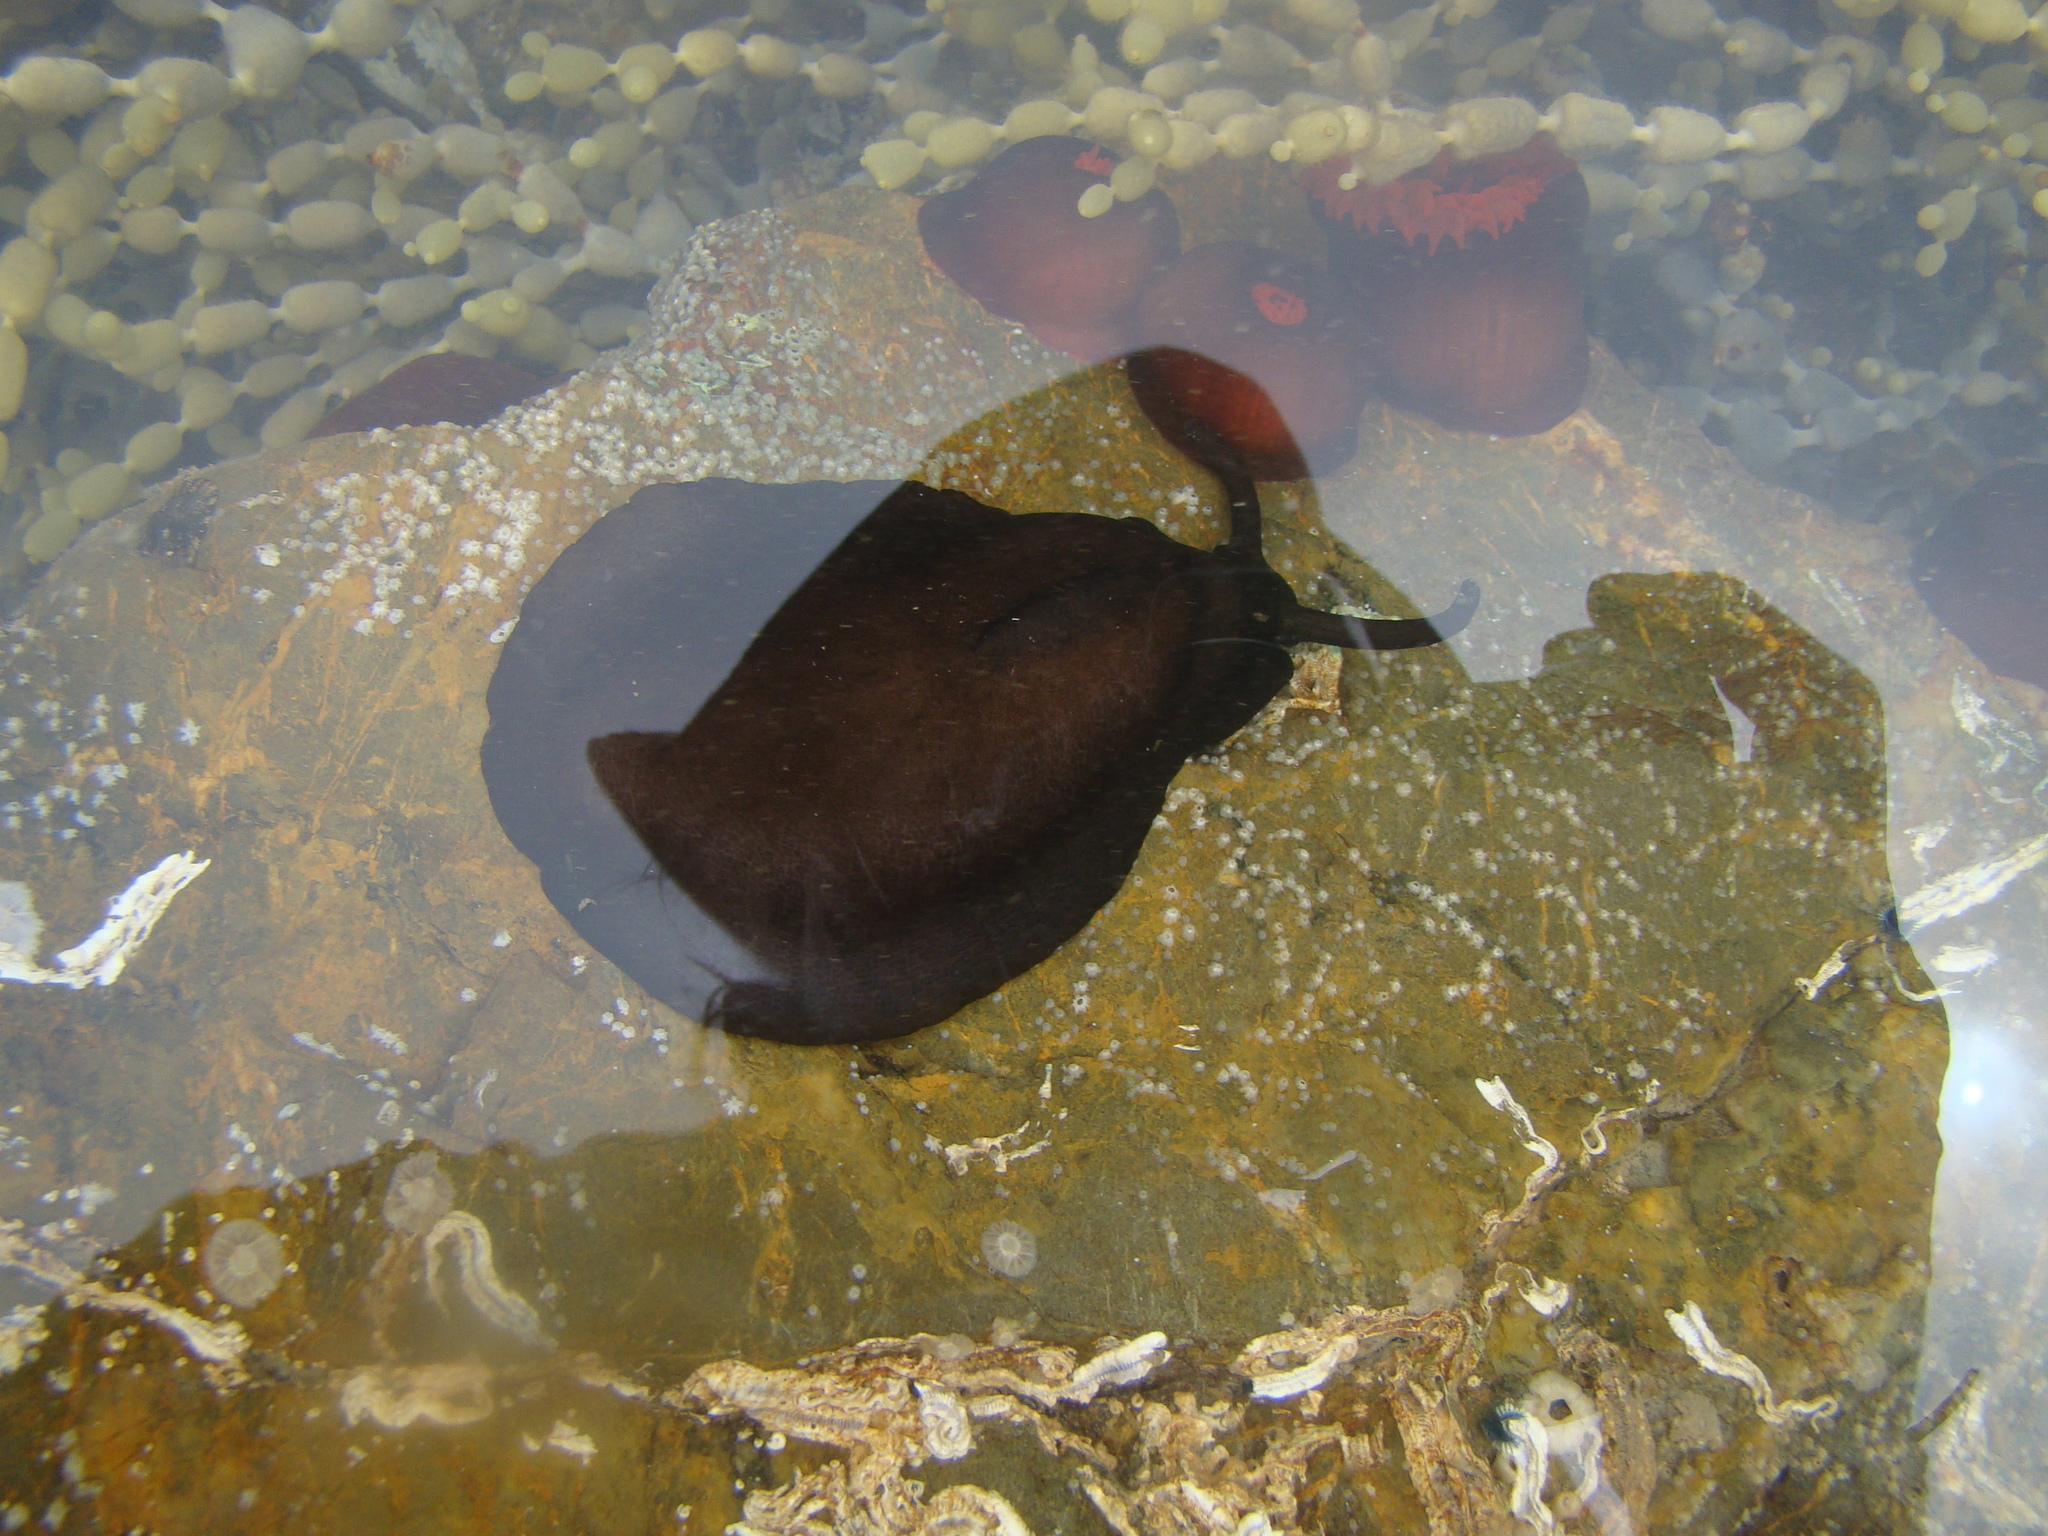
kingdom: Animalia
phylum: Mollusca
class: Gastropoda
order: Lepetellida
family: Fissurellidae
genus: Scutus
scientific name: Scutus breviculus
